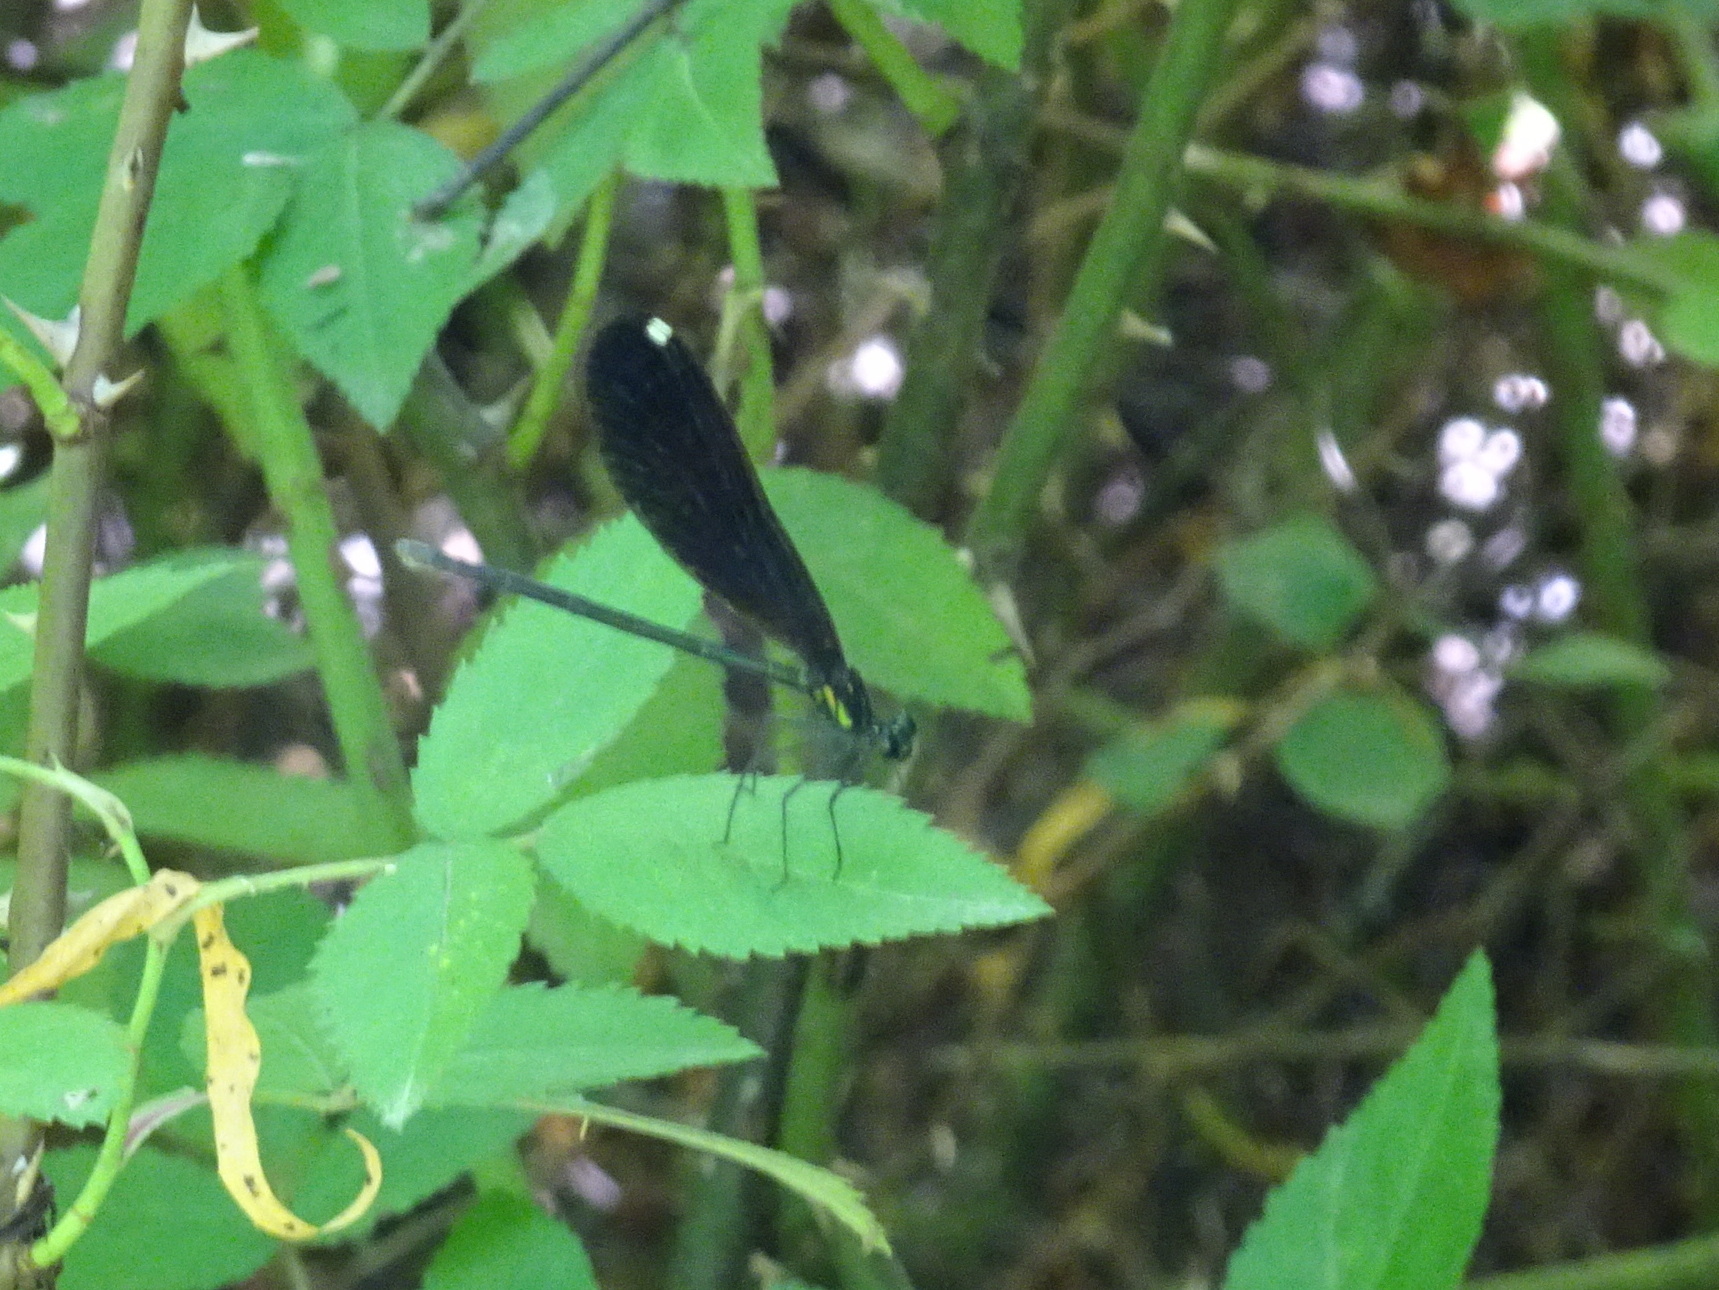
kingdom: Animalia
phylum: Arthropoda
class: Insecta
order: Odonata
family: Calopterygidae
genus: Calopteryx
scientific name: Calopteryx maculata
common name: Ebony jewelwing
